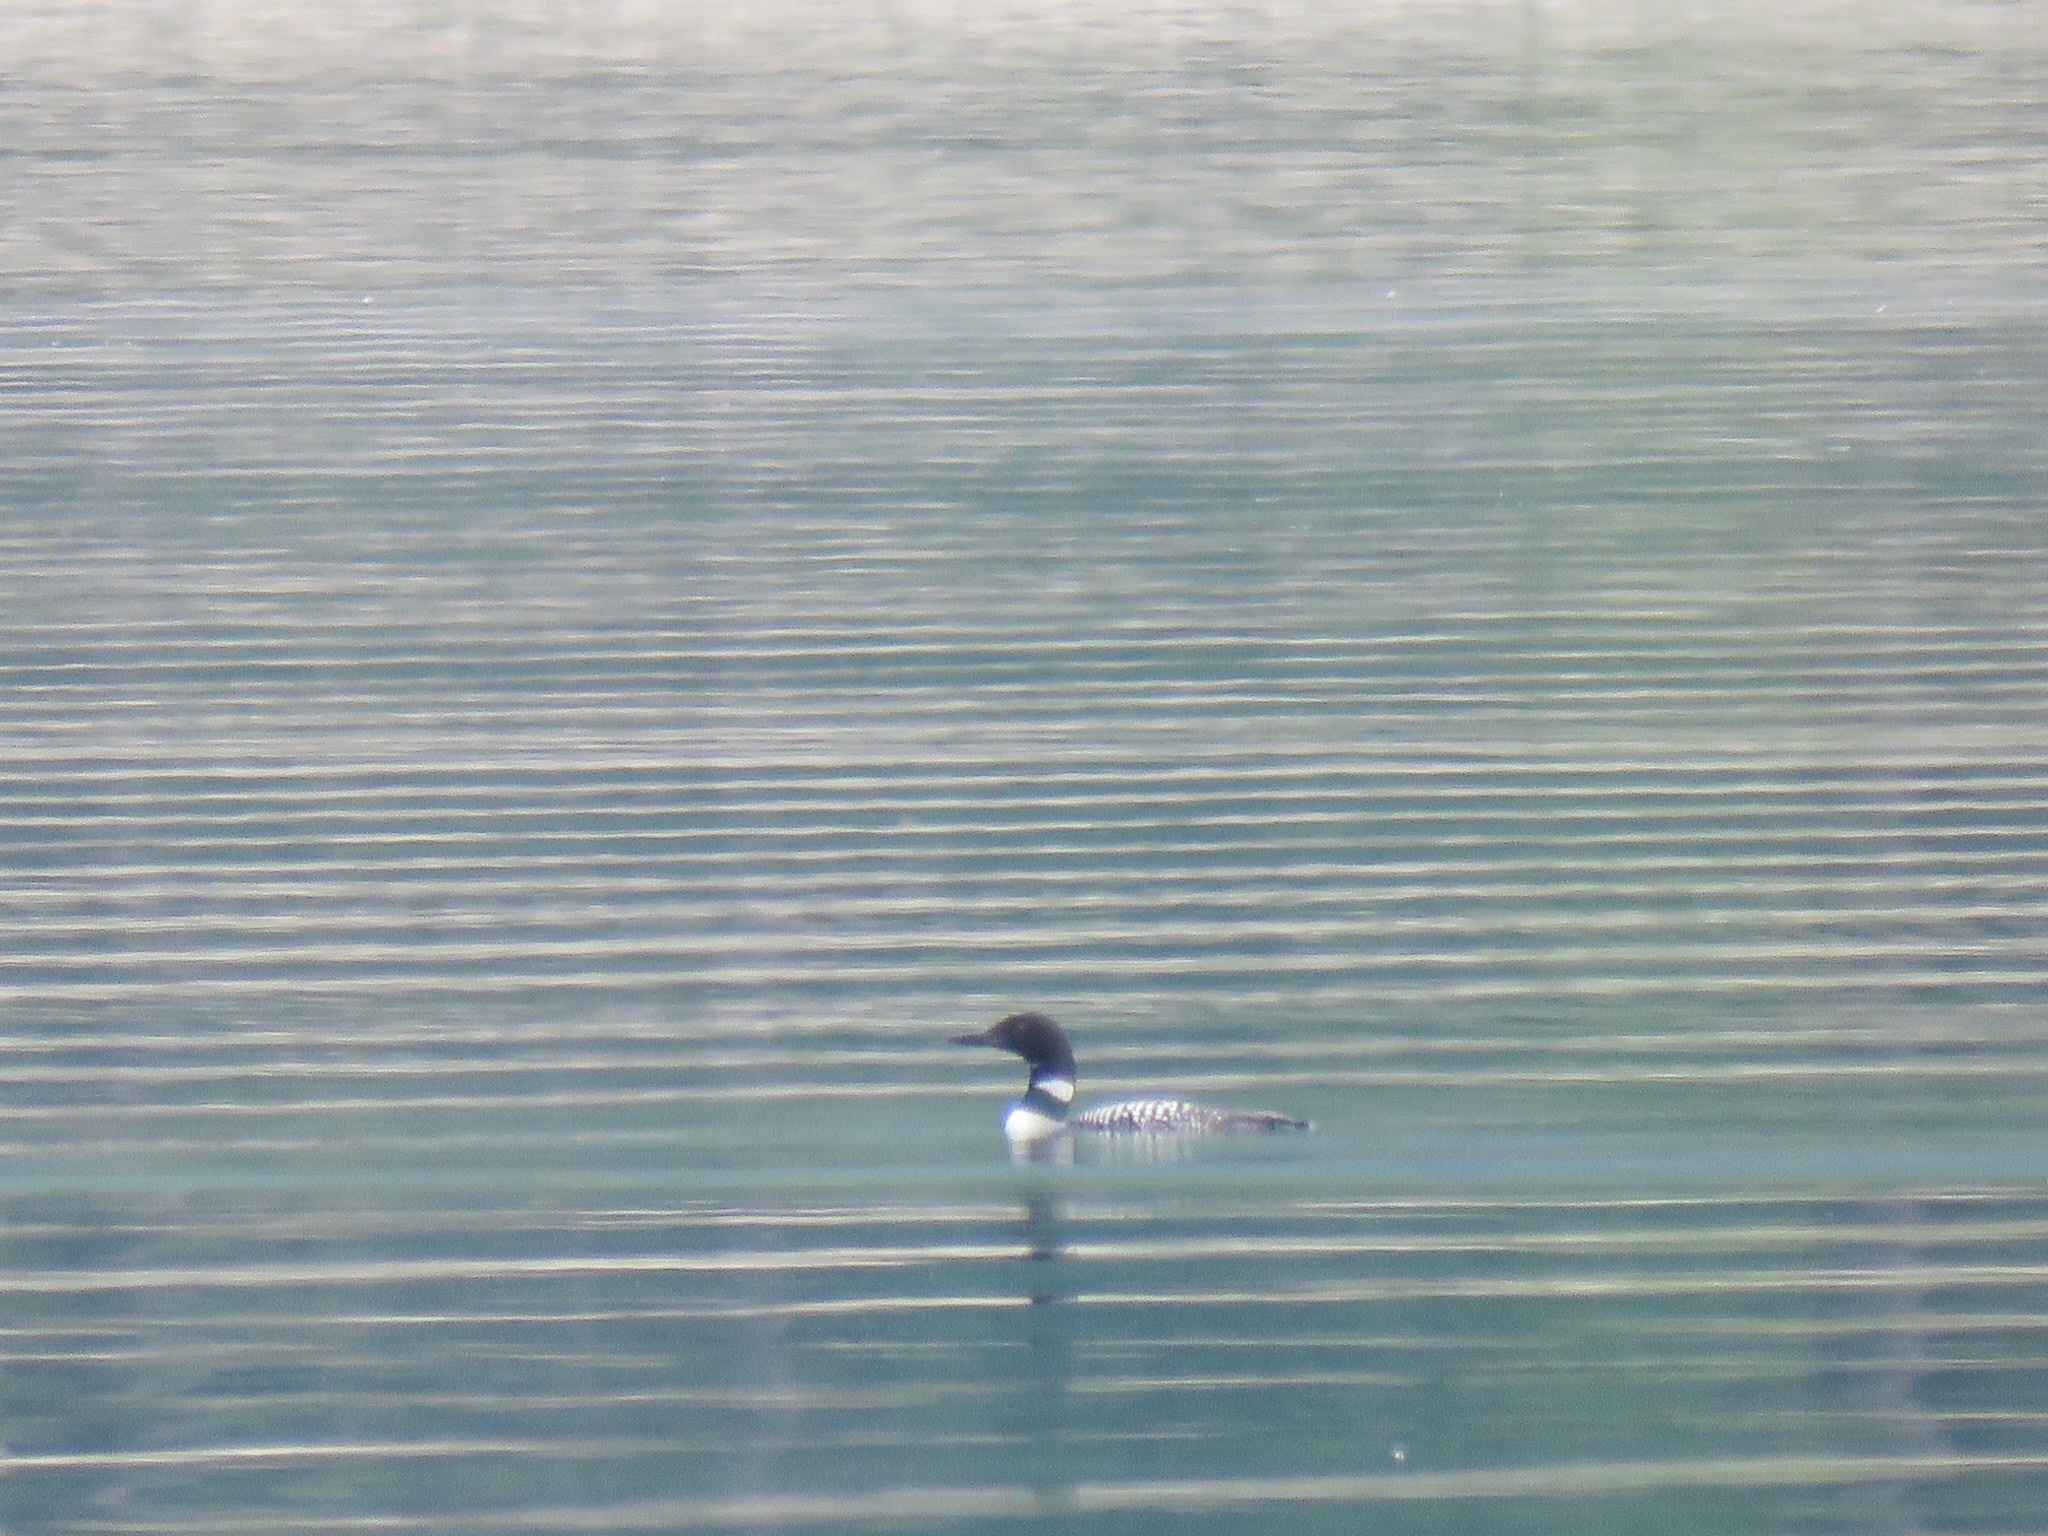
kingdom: Animalia
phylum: Chordata
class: Aves
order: Gaviiformes
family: Gaviidae
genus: Gavia
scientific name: Gavia immer
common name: Common loon
